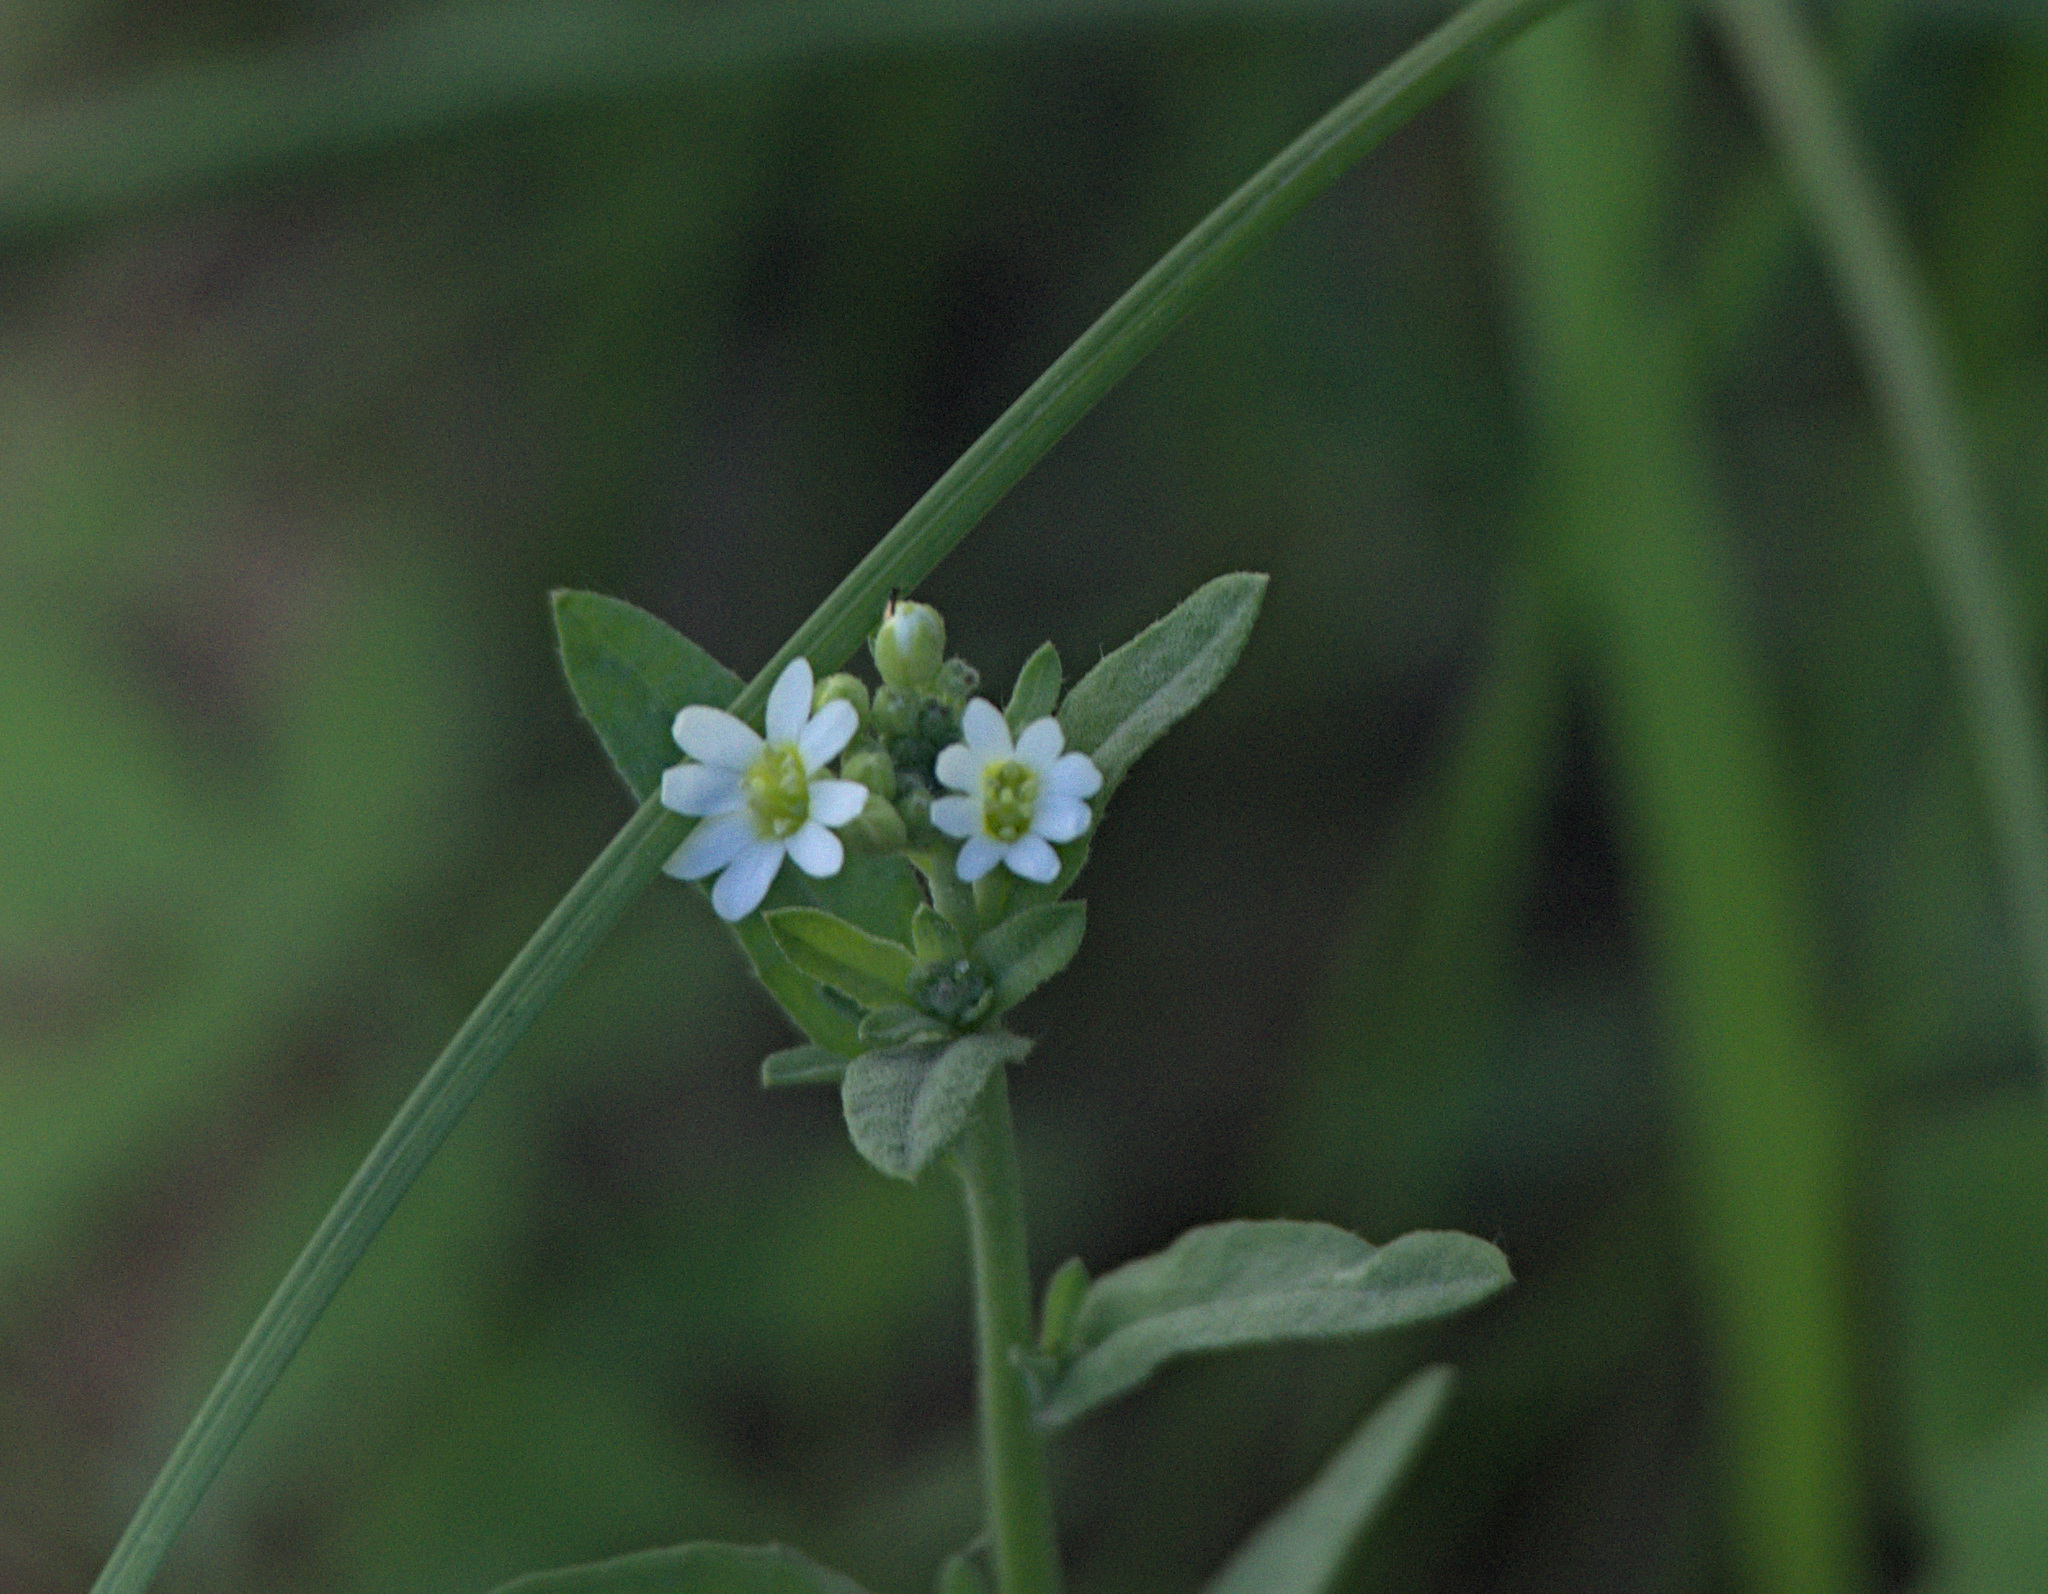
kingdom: Plantae
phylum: Tracheophyta
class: Magnoliopsida
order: Brassicales
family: Brassicaceae
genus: Berteroa
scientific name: Berteroa incana
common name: Hoary alison
